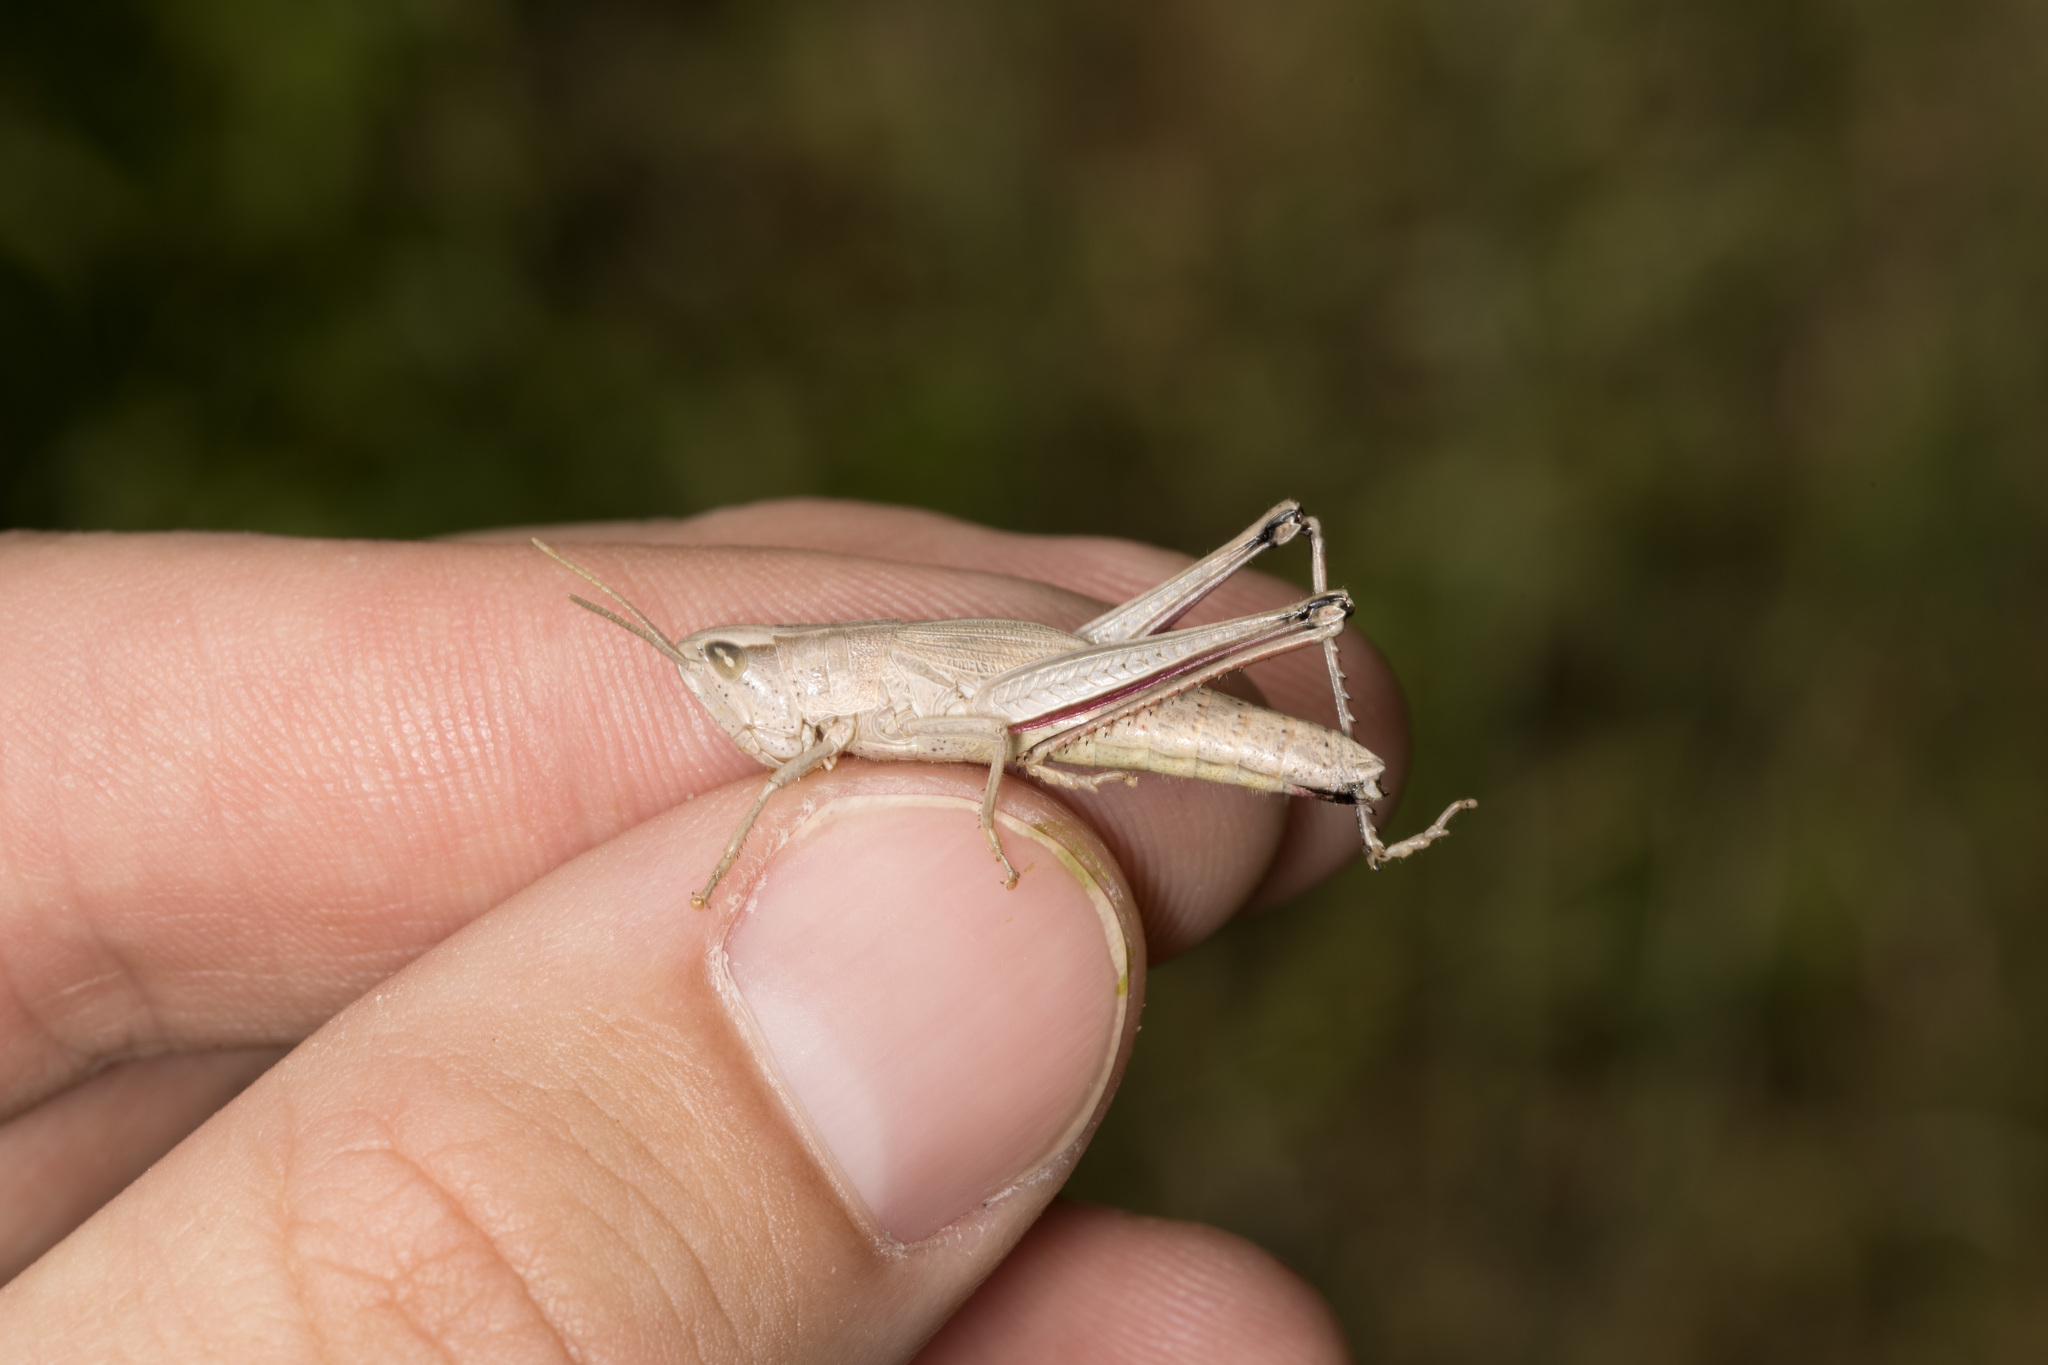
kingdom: Animalia
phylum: Arthropoda
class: Insecta
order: Orthoptera
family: Acrididae
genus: Chrysochraon
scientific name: Chrysochraon dispar
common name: Large gold grasshopper
